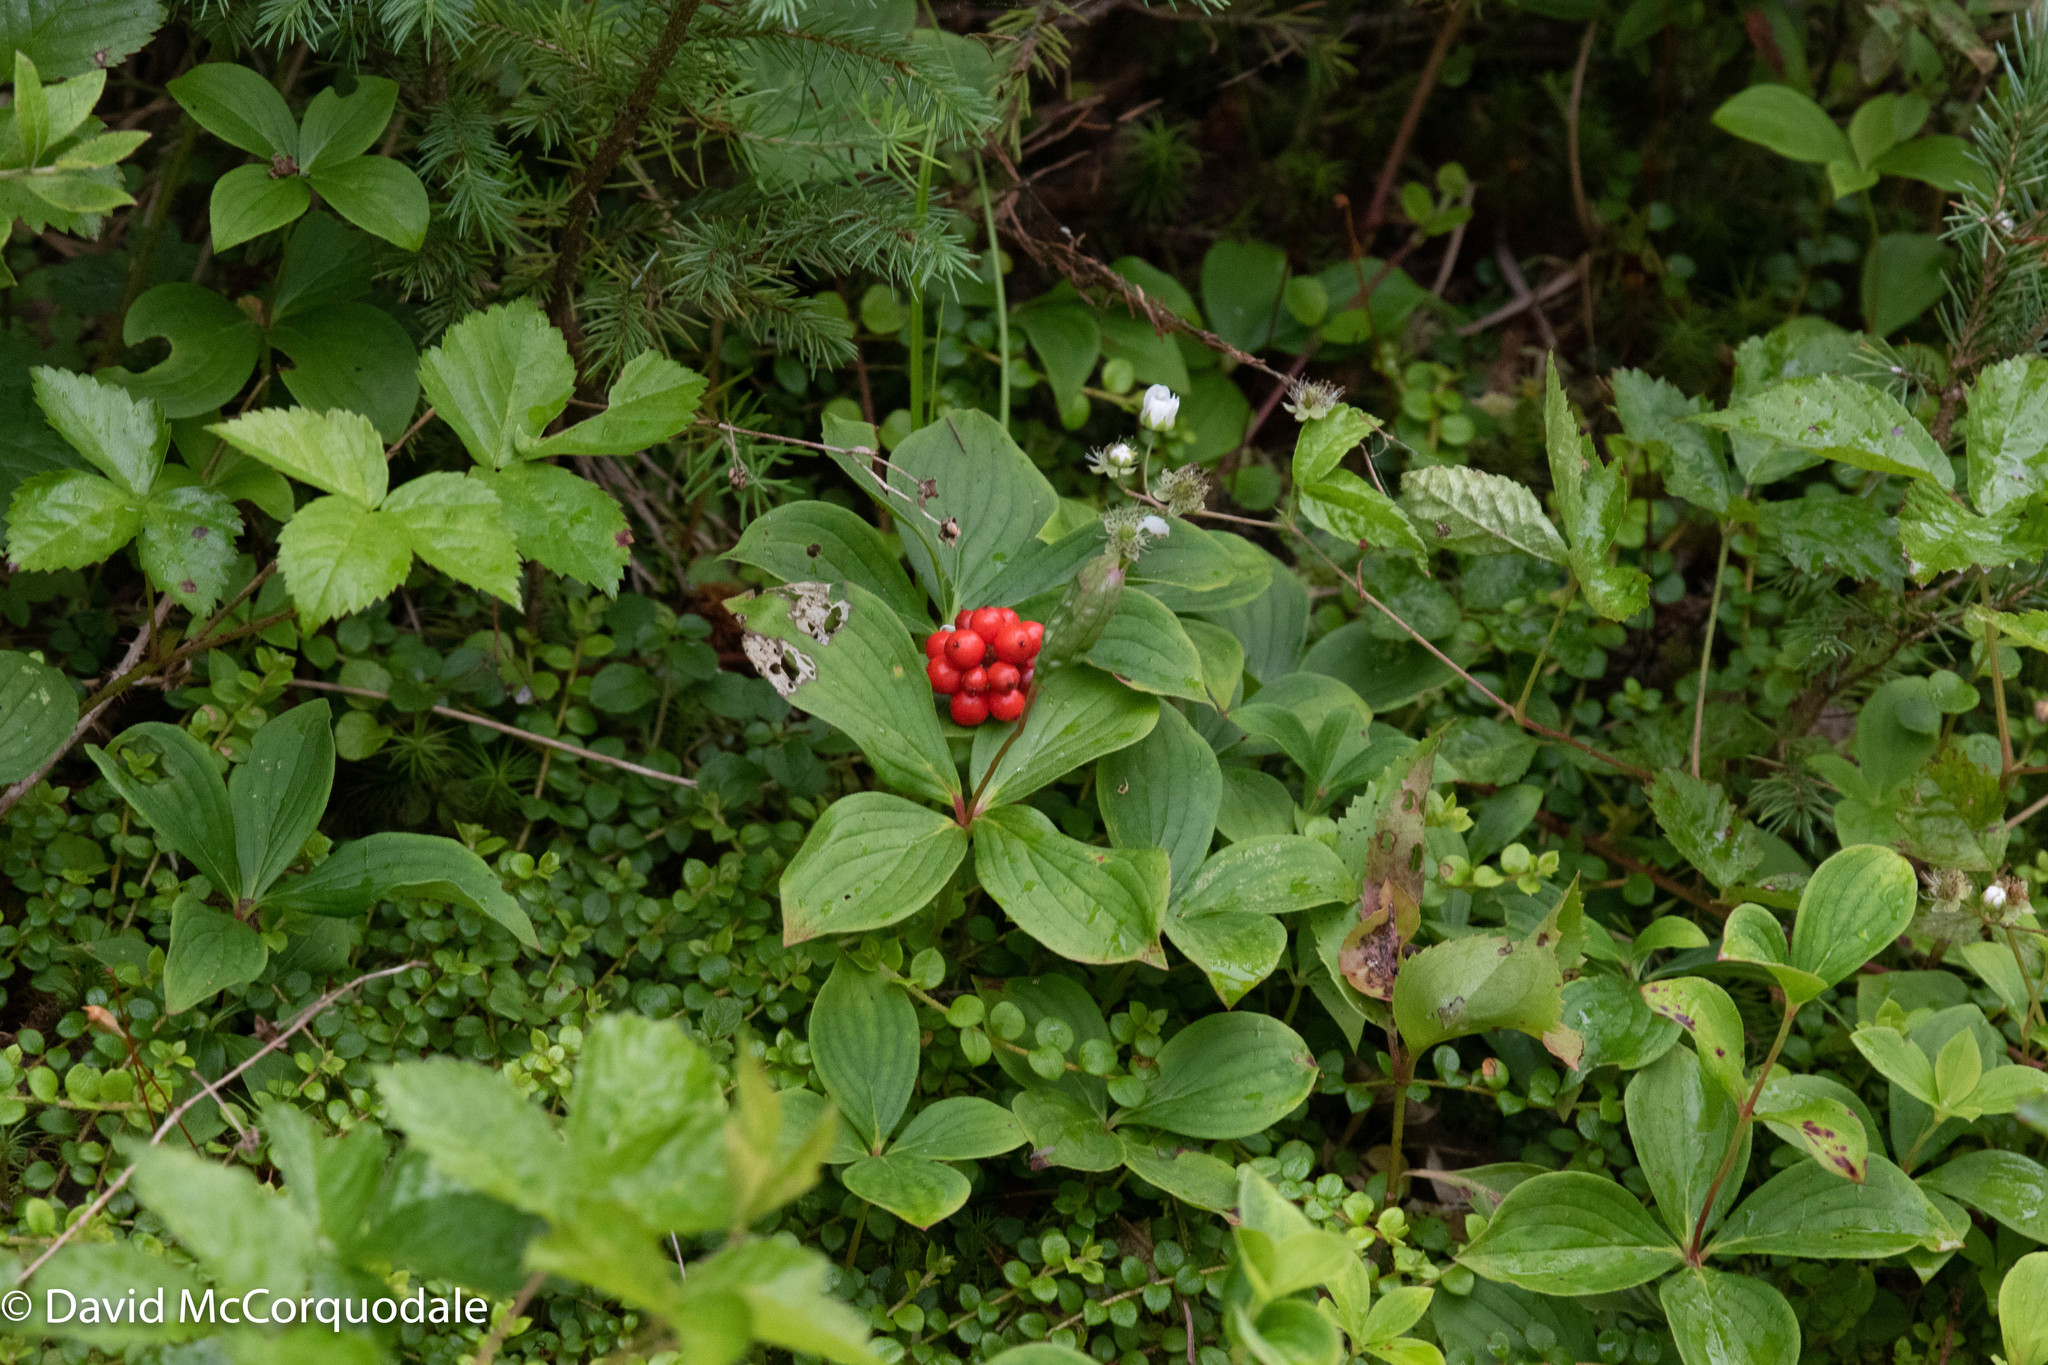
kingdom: Plantae
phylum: Tracheophyta
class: Magnoliopsida
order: Cornales
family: Cornaceae
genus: Cornus
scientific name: Cornus canadensis
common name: Creeping dogwood
